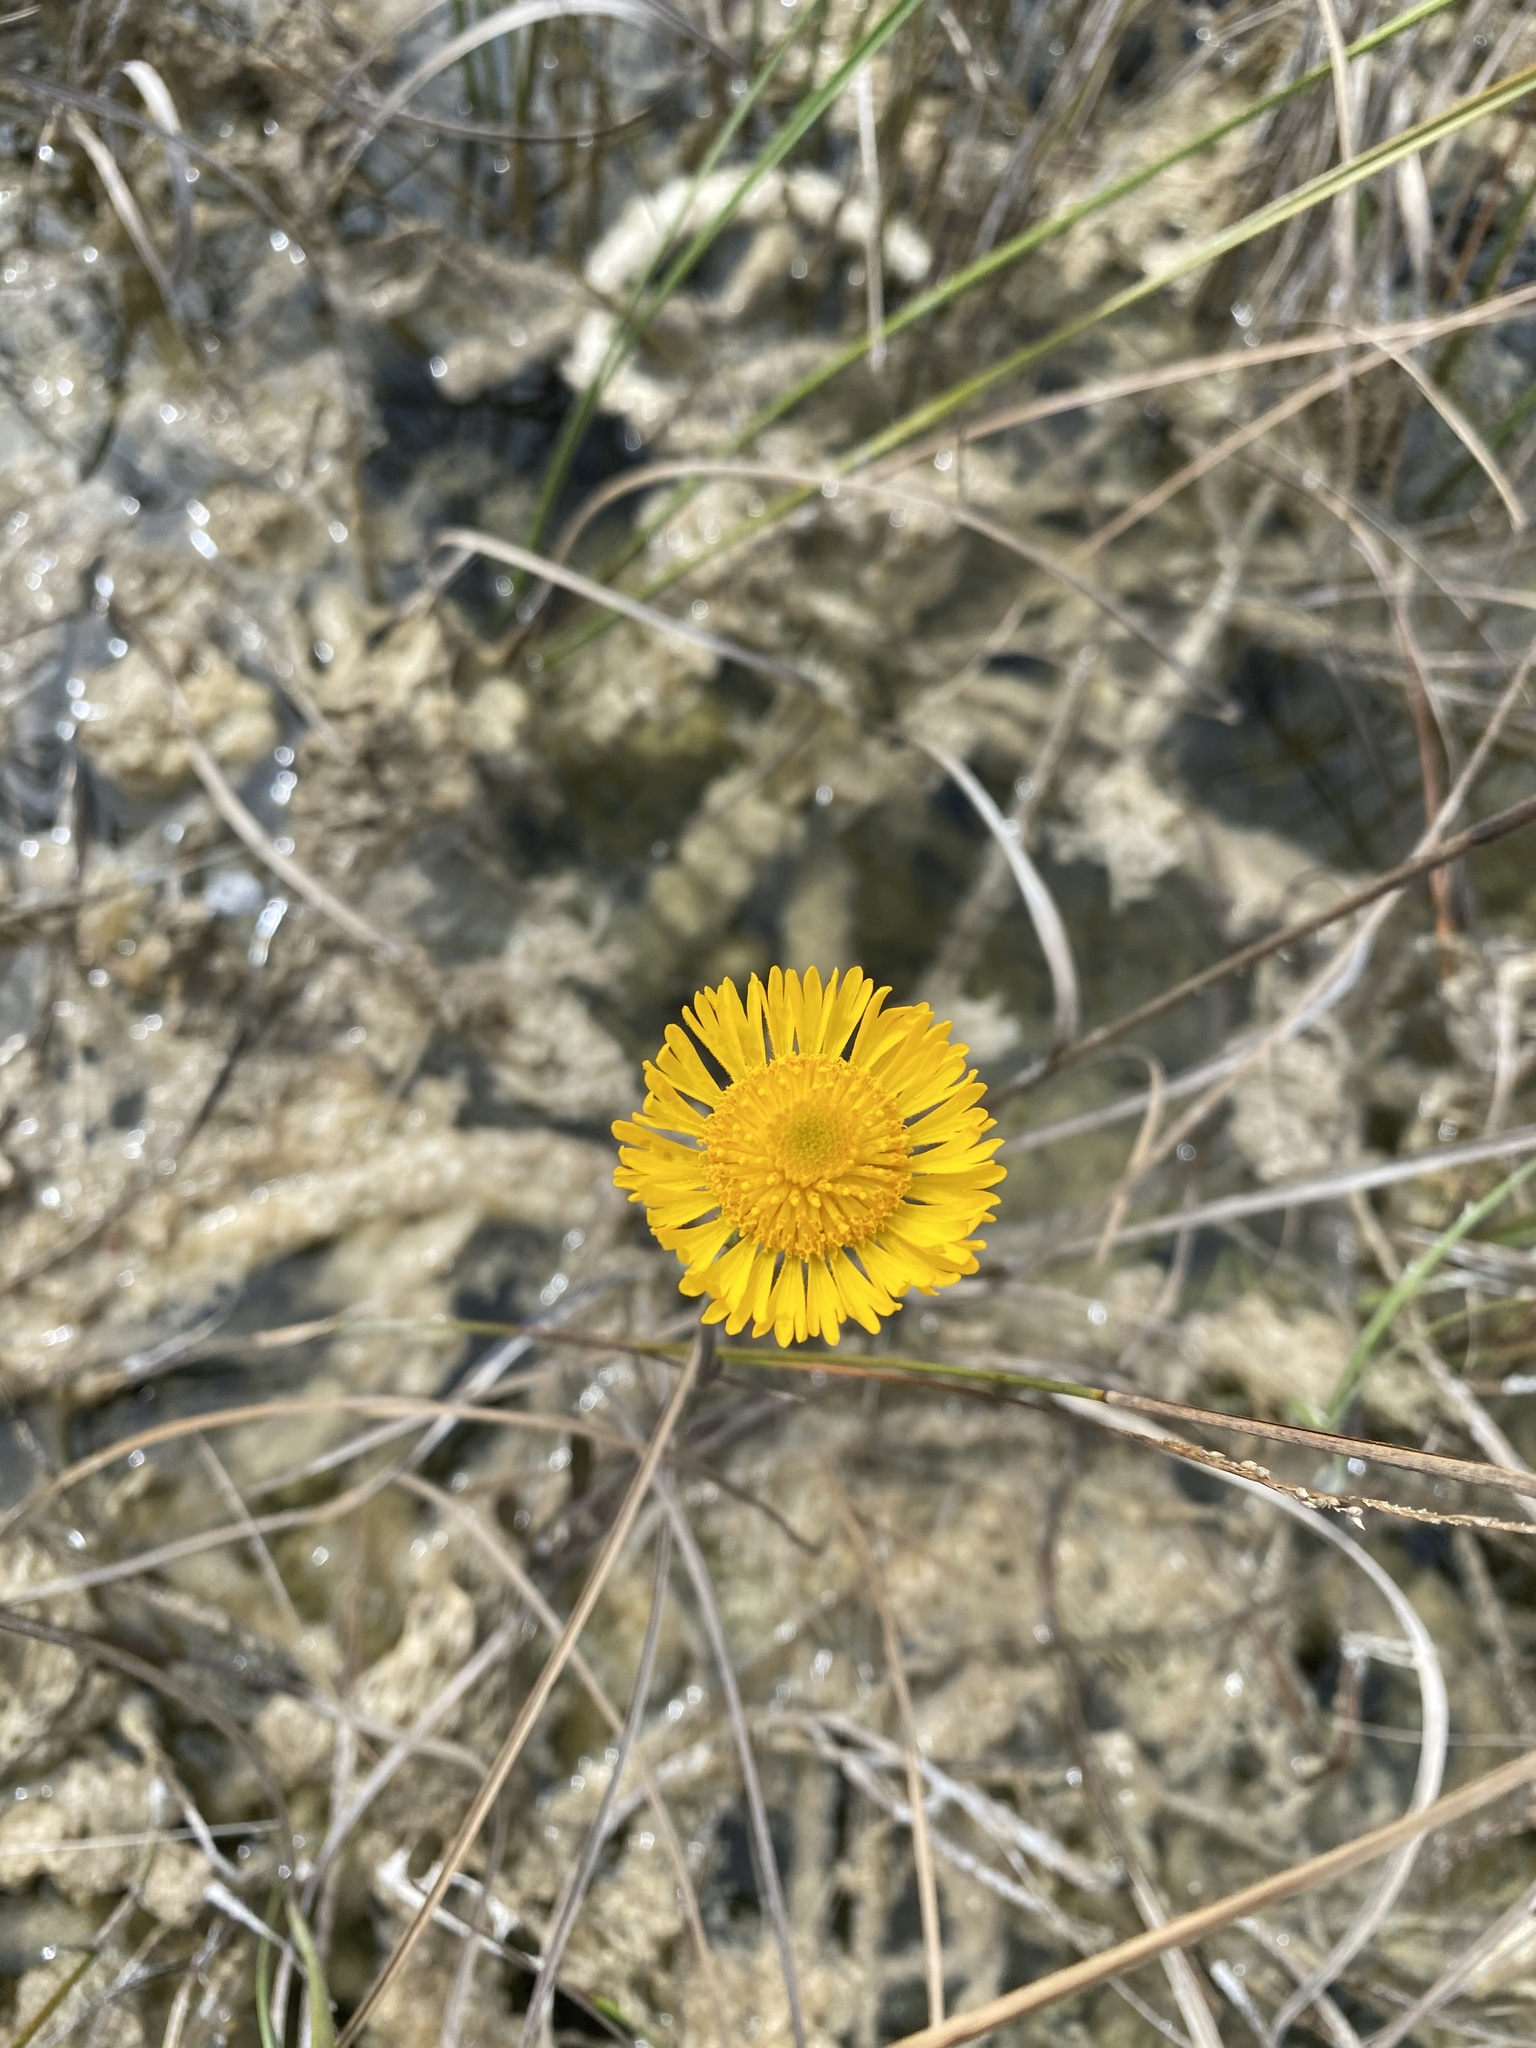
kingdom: Plantae
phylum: Tracheophyta
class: Magnoliopsida
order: Asterales
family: Asteraceae
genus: Helenium
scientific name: Helenium pinnatifidum
